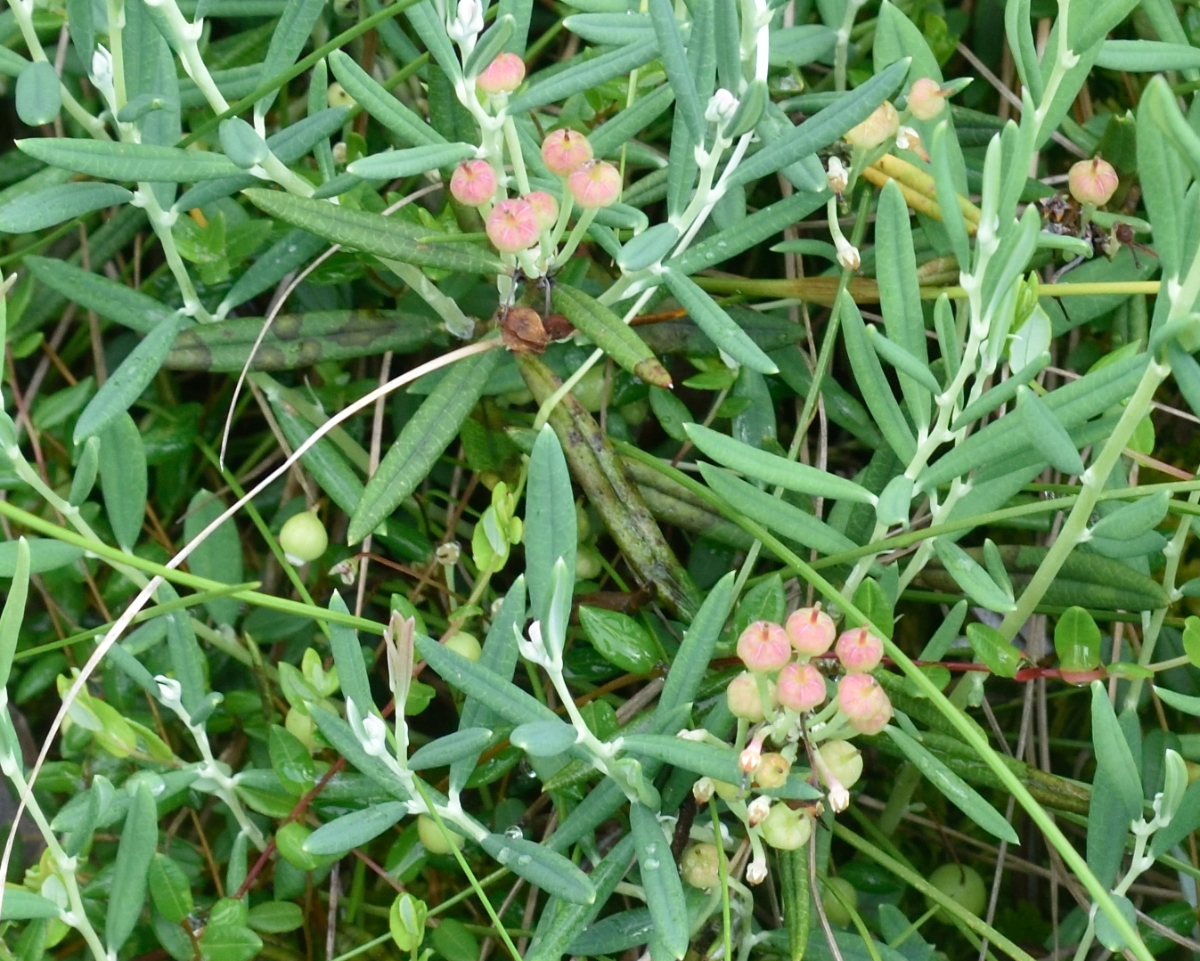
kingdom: Plantae
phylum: Tracheophyta
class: Magnoliopsida
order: Ericales
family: Ericaceae
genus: Andromeda
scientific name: Andromeda polifolia
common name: Bog-rosemary
